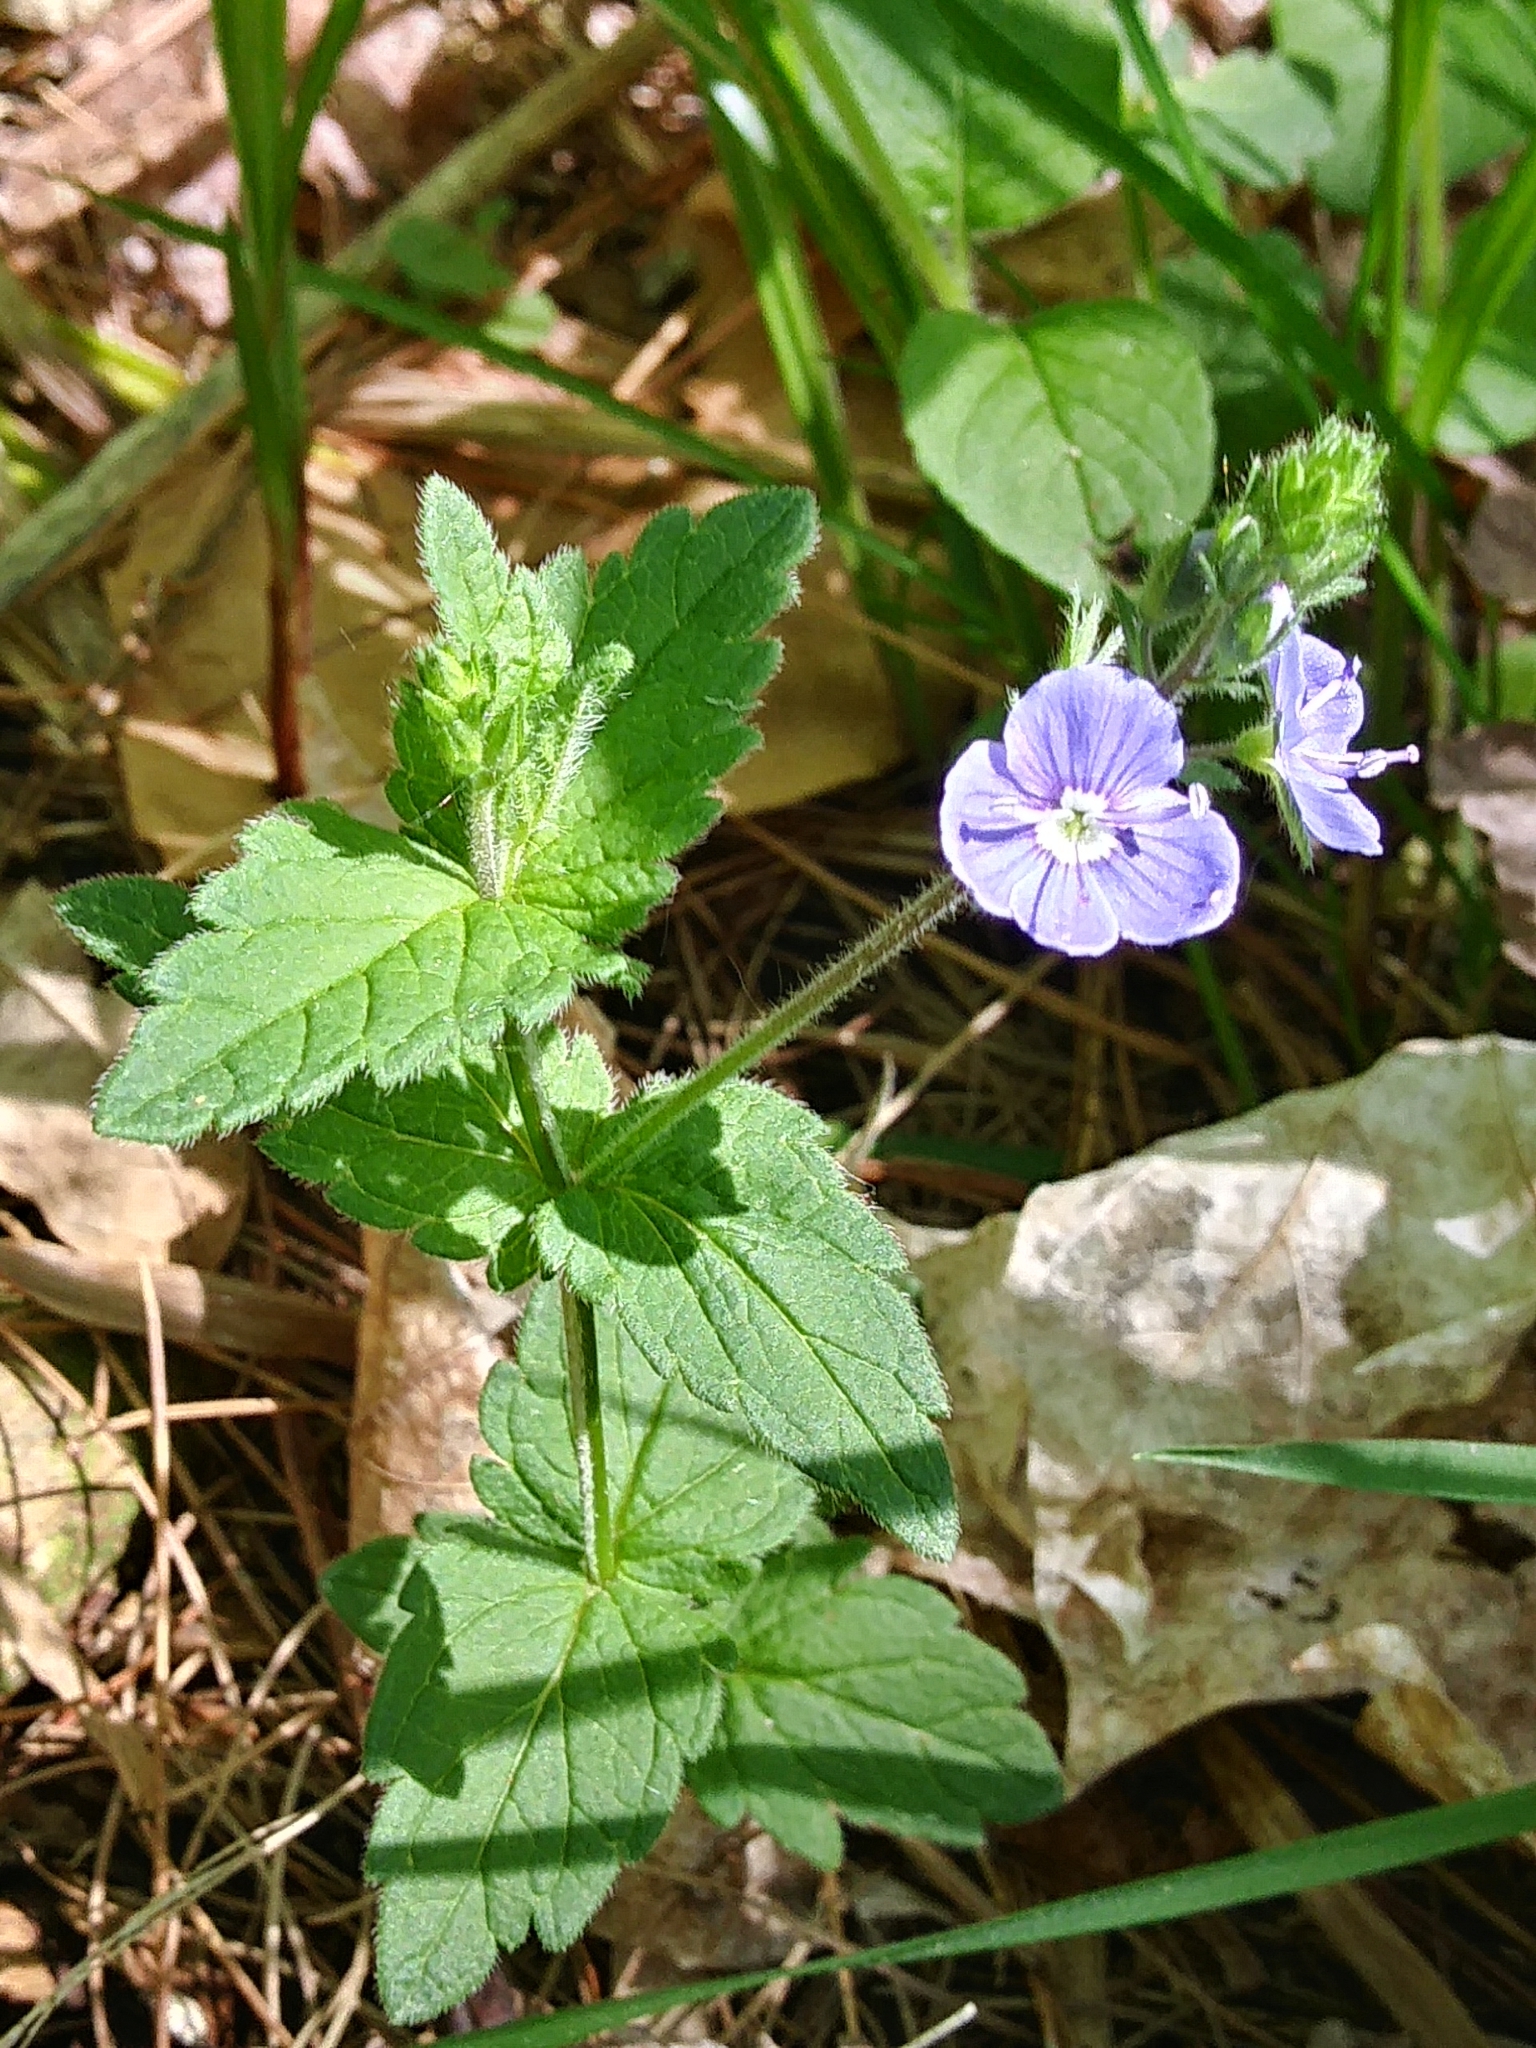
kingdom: Plantae
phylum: Tracheophyta
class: Magnoliopsida
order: Lamiales
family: Plantaginaceae
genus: Veronica
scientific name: Veronica chamaedrys
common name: Germander speedwell
